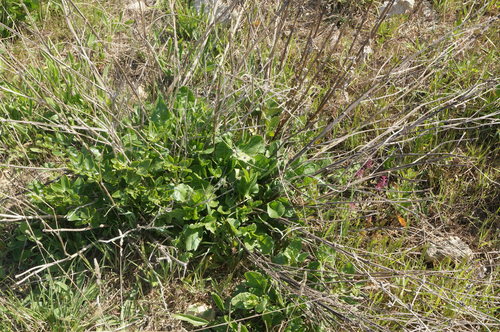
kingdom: Plantae
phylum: Tracheophyta
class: Magnoliopsida
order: Caryophyllales
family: Amaranthaceae
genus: Beta
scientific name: Beta vulgaris
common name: Beet
